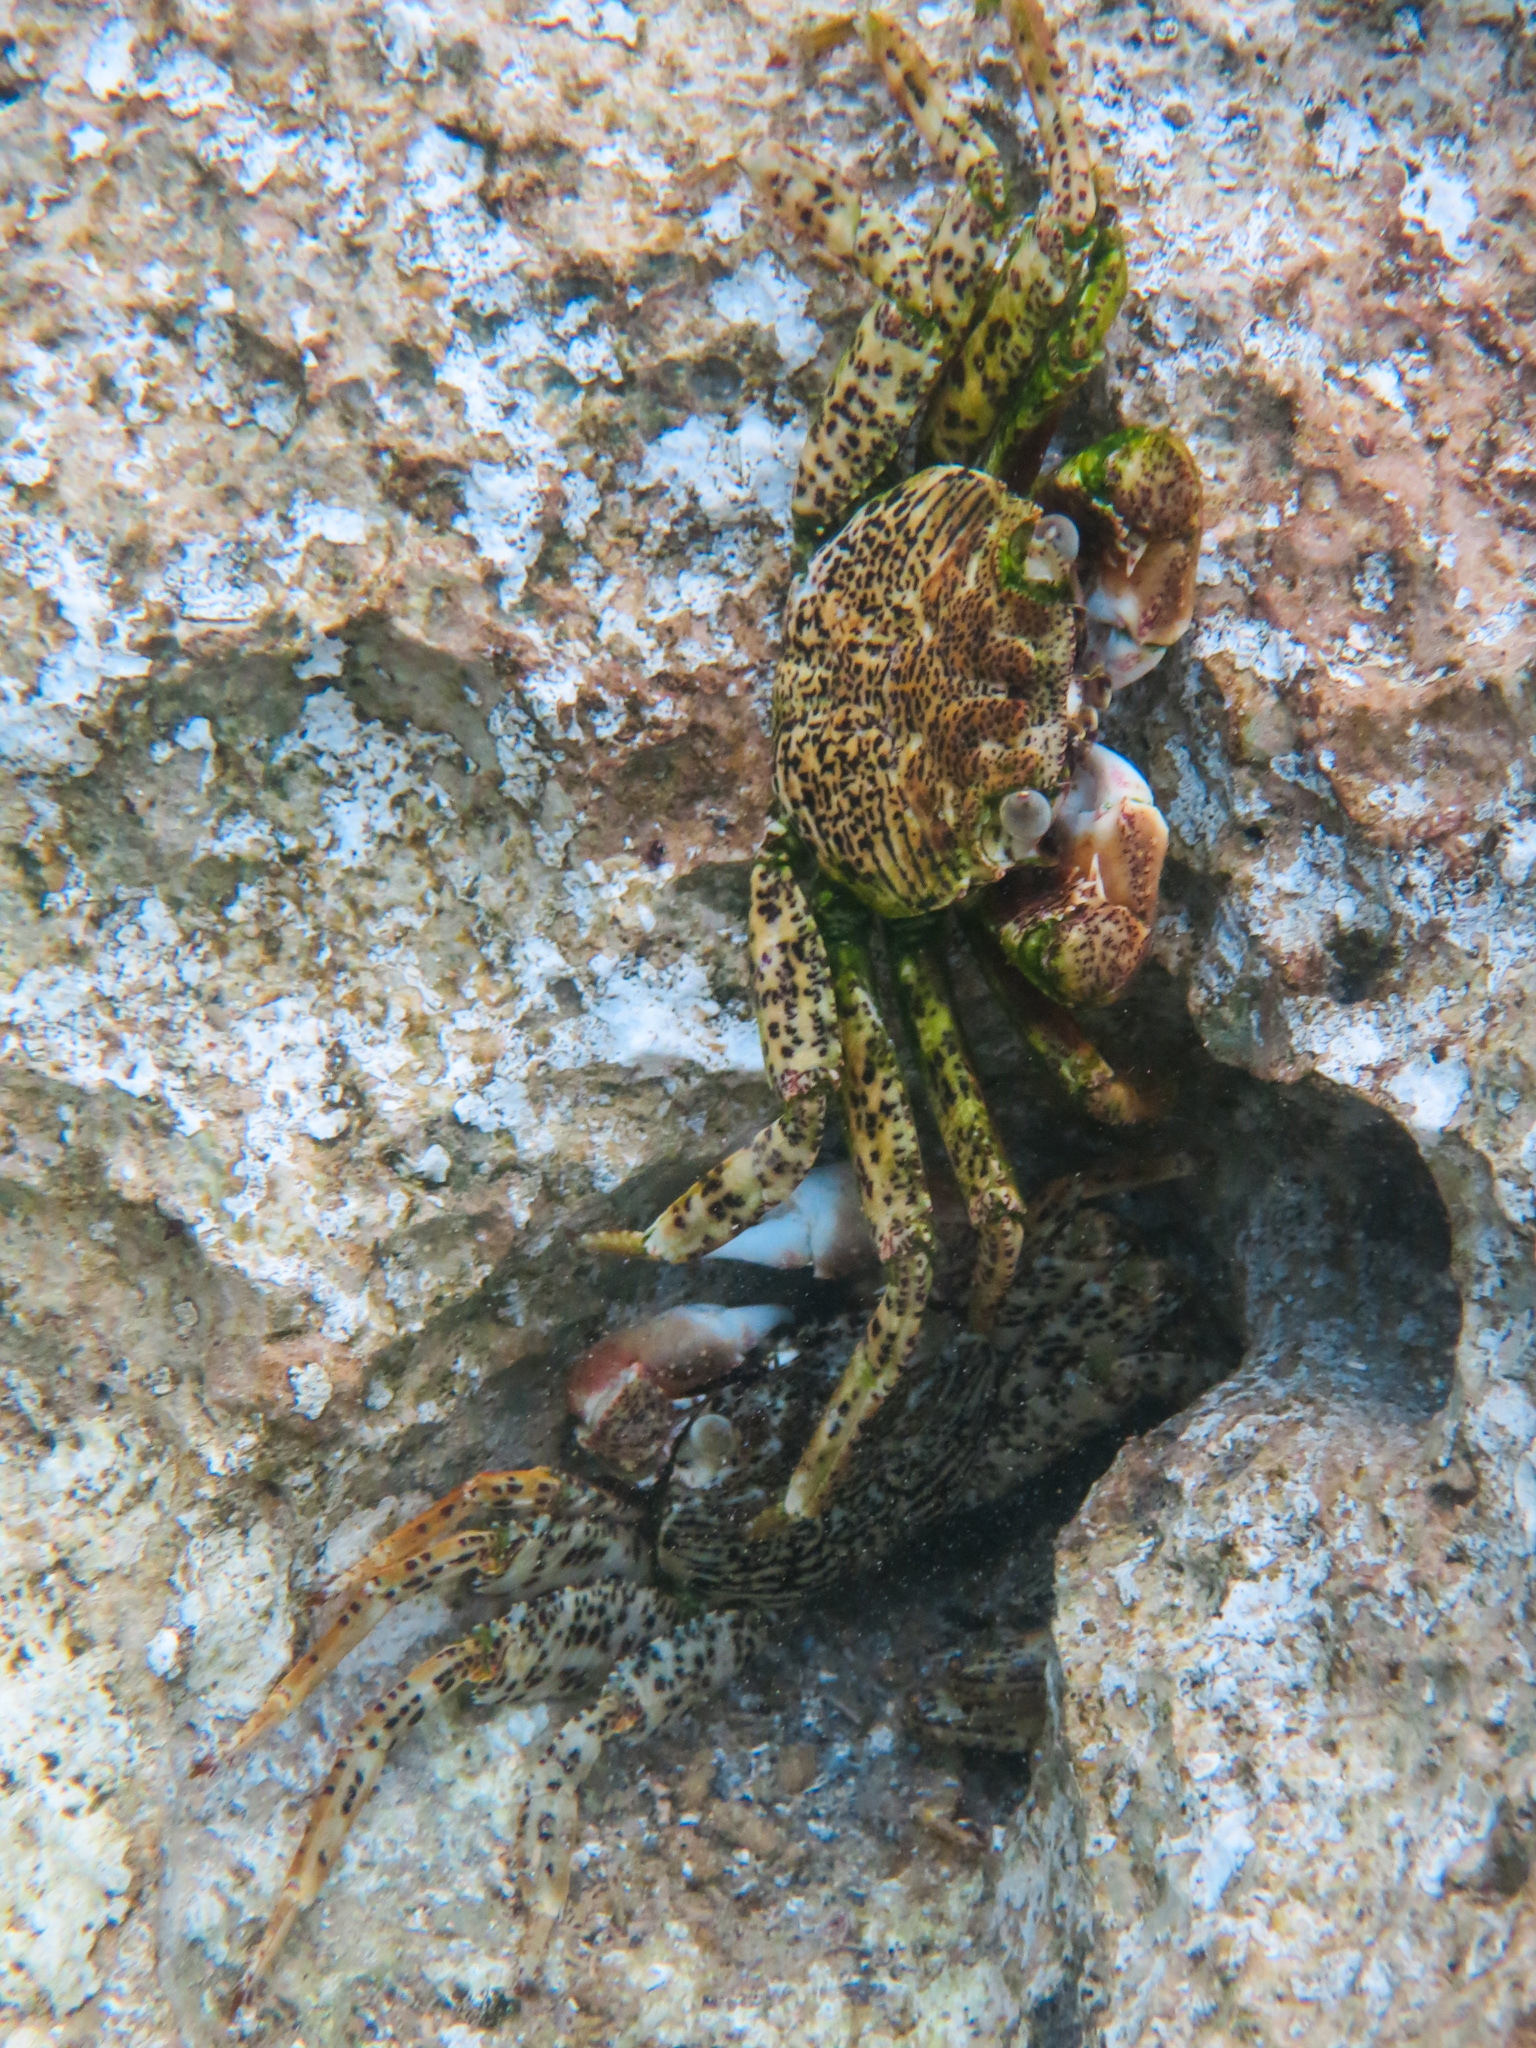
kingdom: Animalia
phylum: Arthropoda
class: Malacostraca
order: Decapoda
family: Grapsidae
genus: Grapsus
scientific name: Grapsus tenuicrustatus
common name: Natal lightfoot crab
